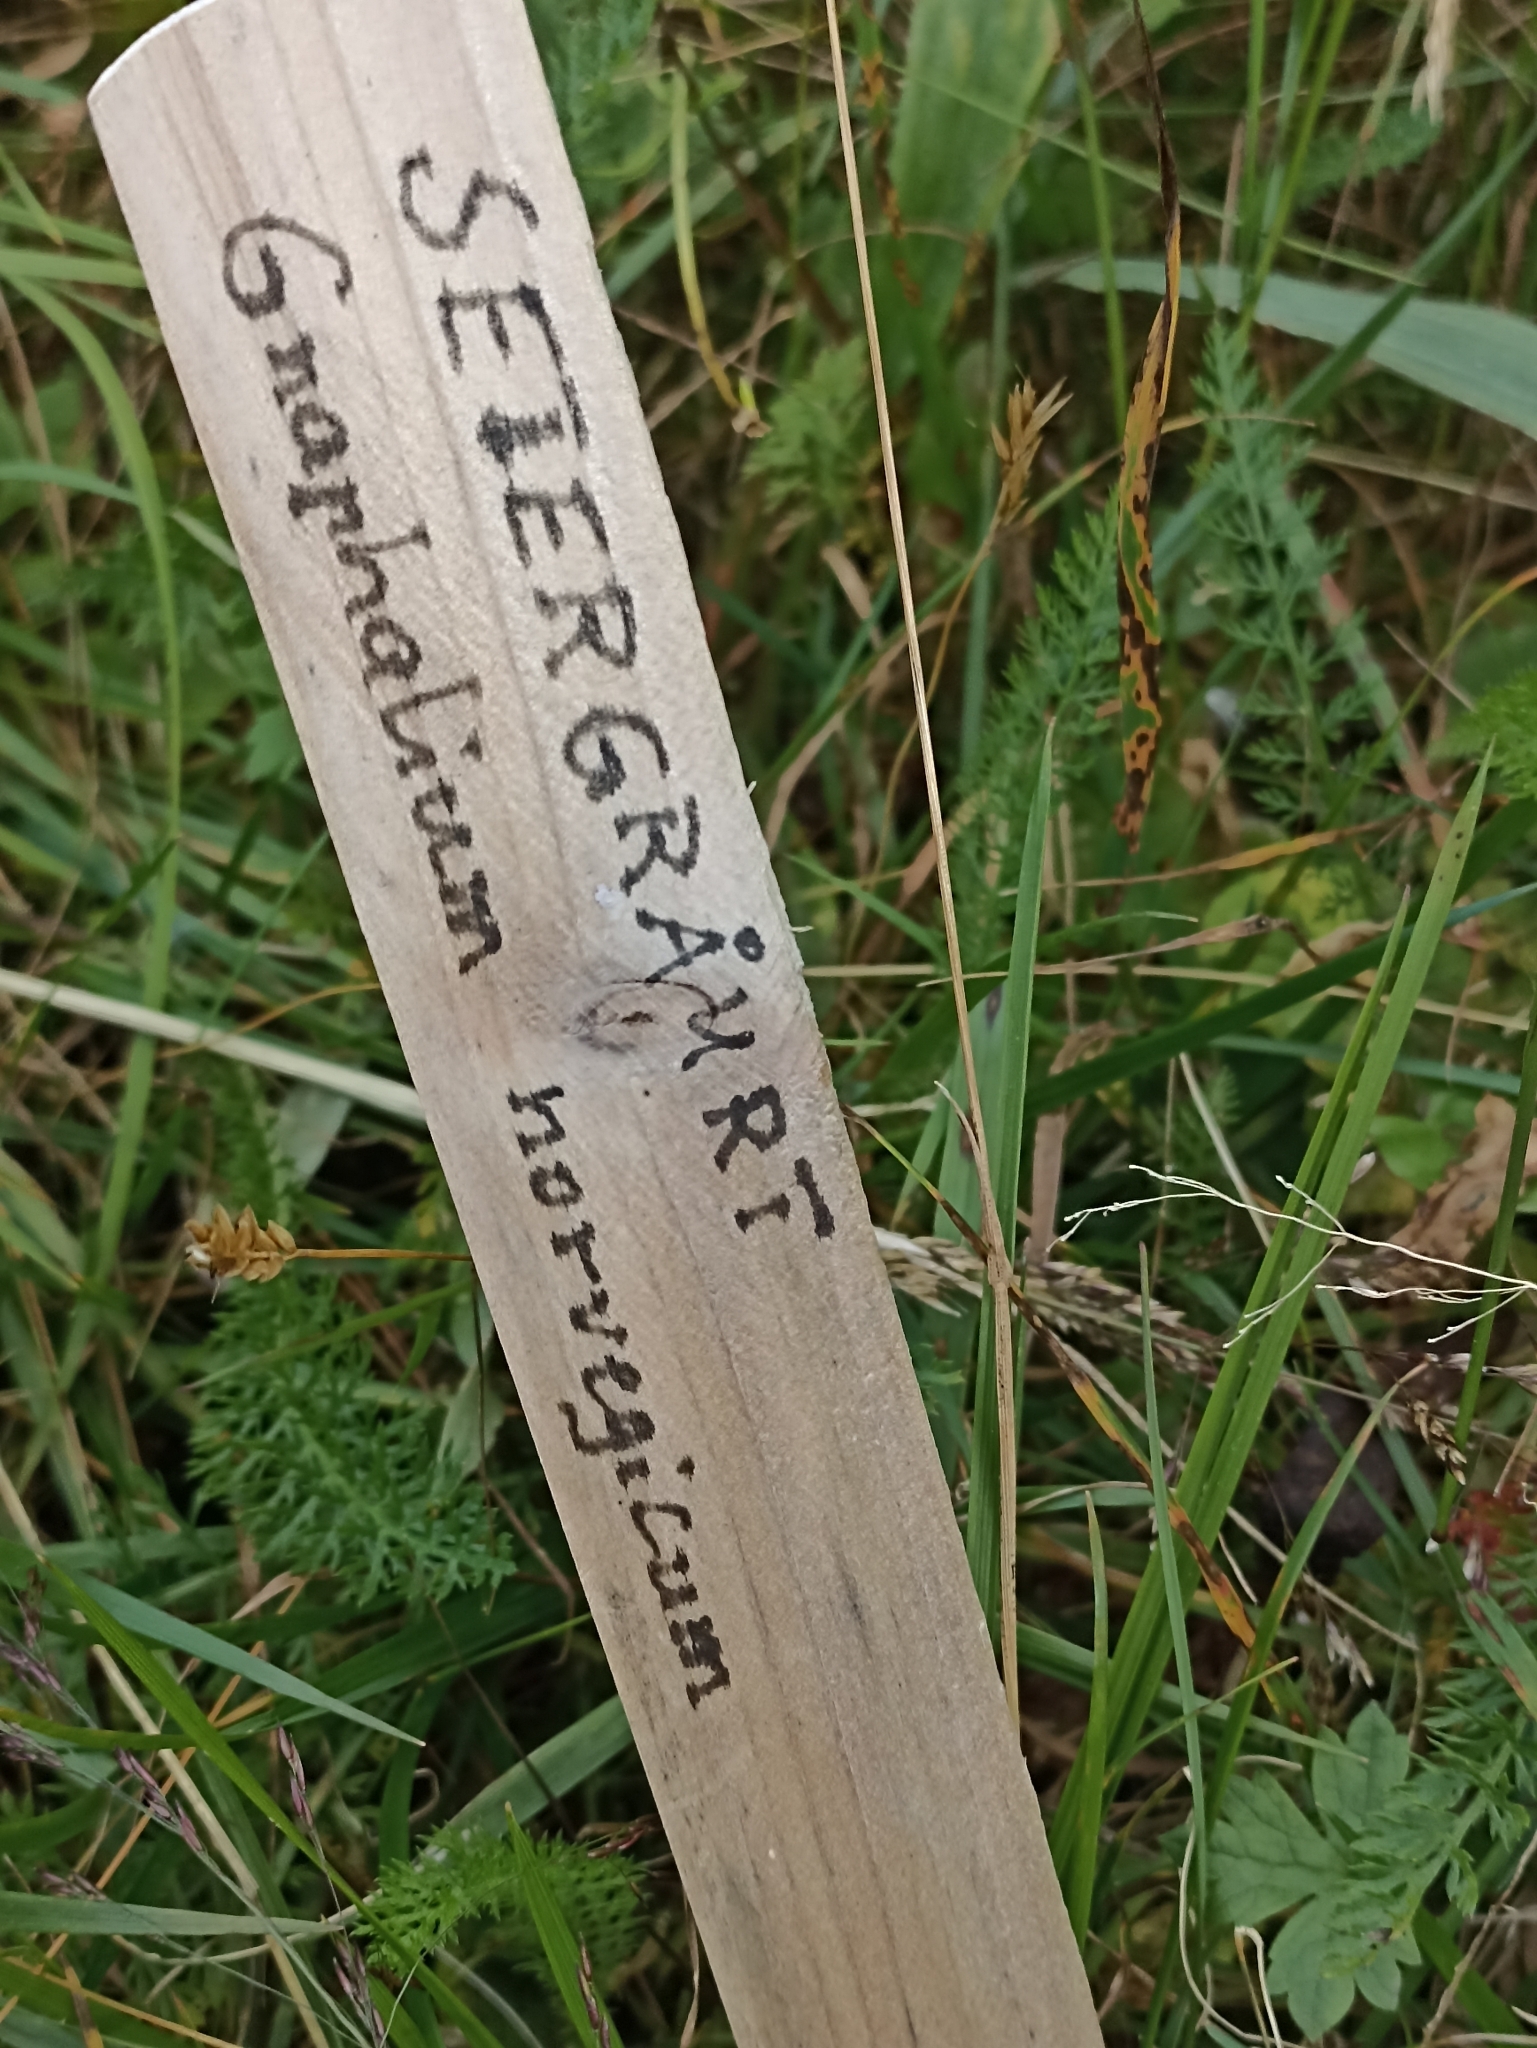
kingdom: Plantae
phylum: Tracheophyta
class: Magnoliopsida
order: Asterales
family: Asteraceae
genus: Omalotheca
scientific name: Omalotheca norvegica
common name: Norwegian arctic-cudweed
